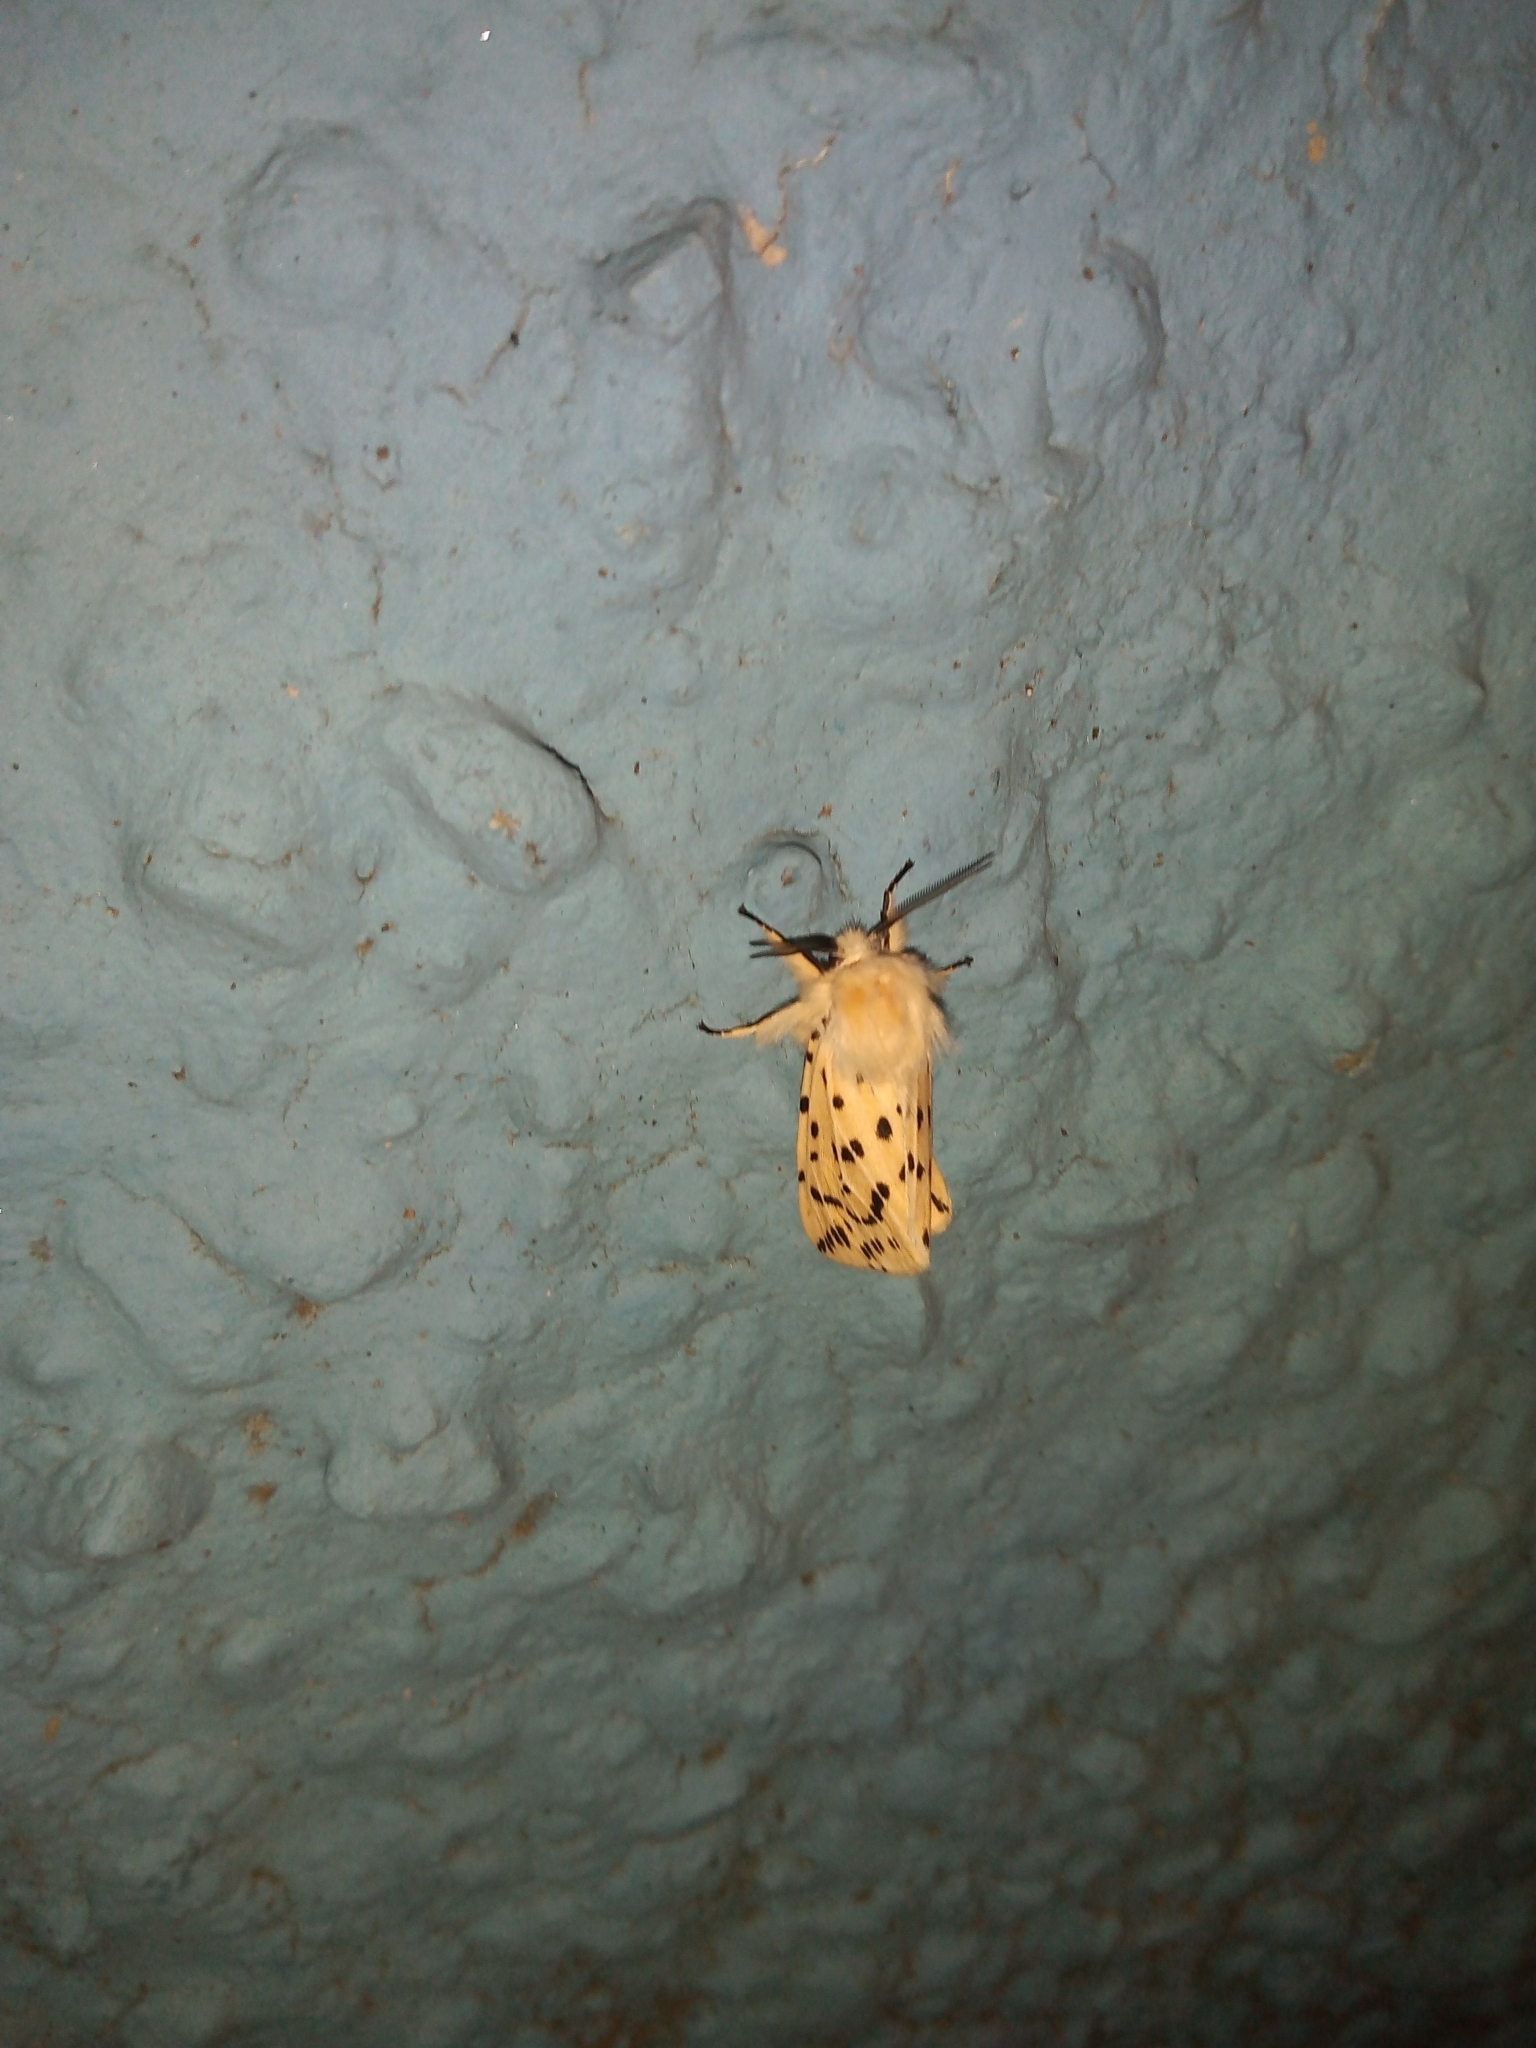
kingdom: Animalia
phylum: Arthropoda
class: Insecta
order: Lepidoptera
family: Erebidae
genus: Spilosoma
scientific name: Spilosoma lubricipeda
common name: White ermine
